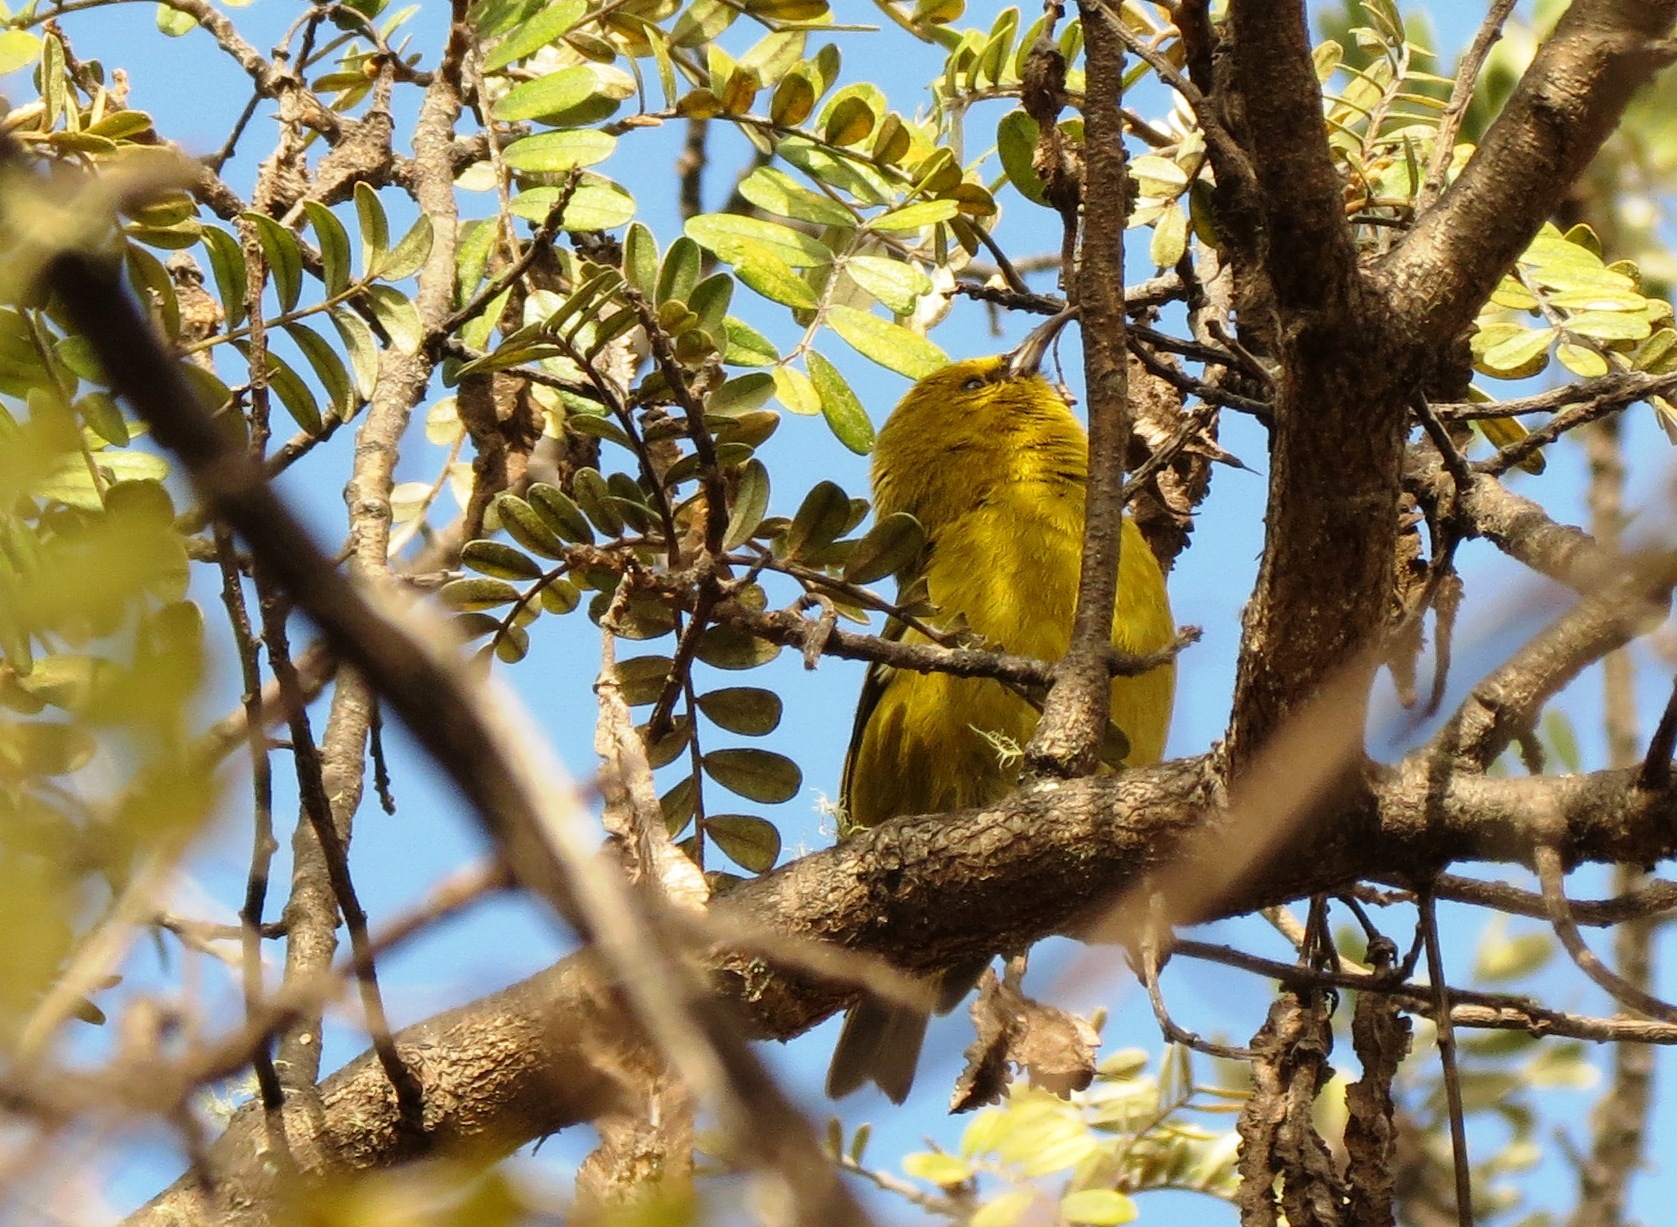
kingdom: Animalia
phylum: Chordata
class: Aves
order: Passeriformes
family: Fringillidae
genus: Chlorodrepanis
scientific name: Chlorodrepanis virens
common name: Hawaii amakihi
